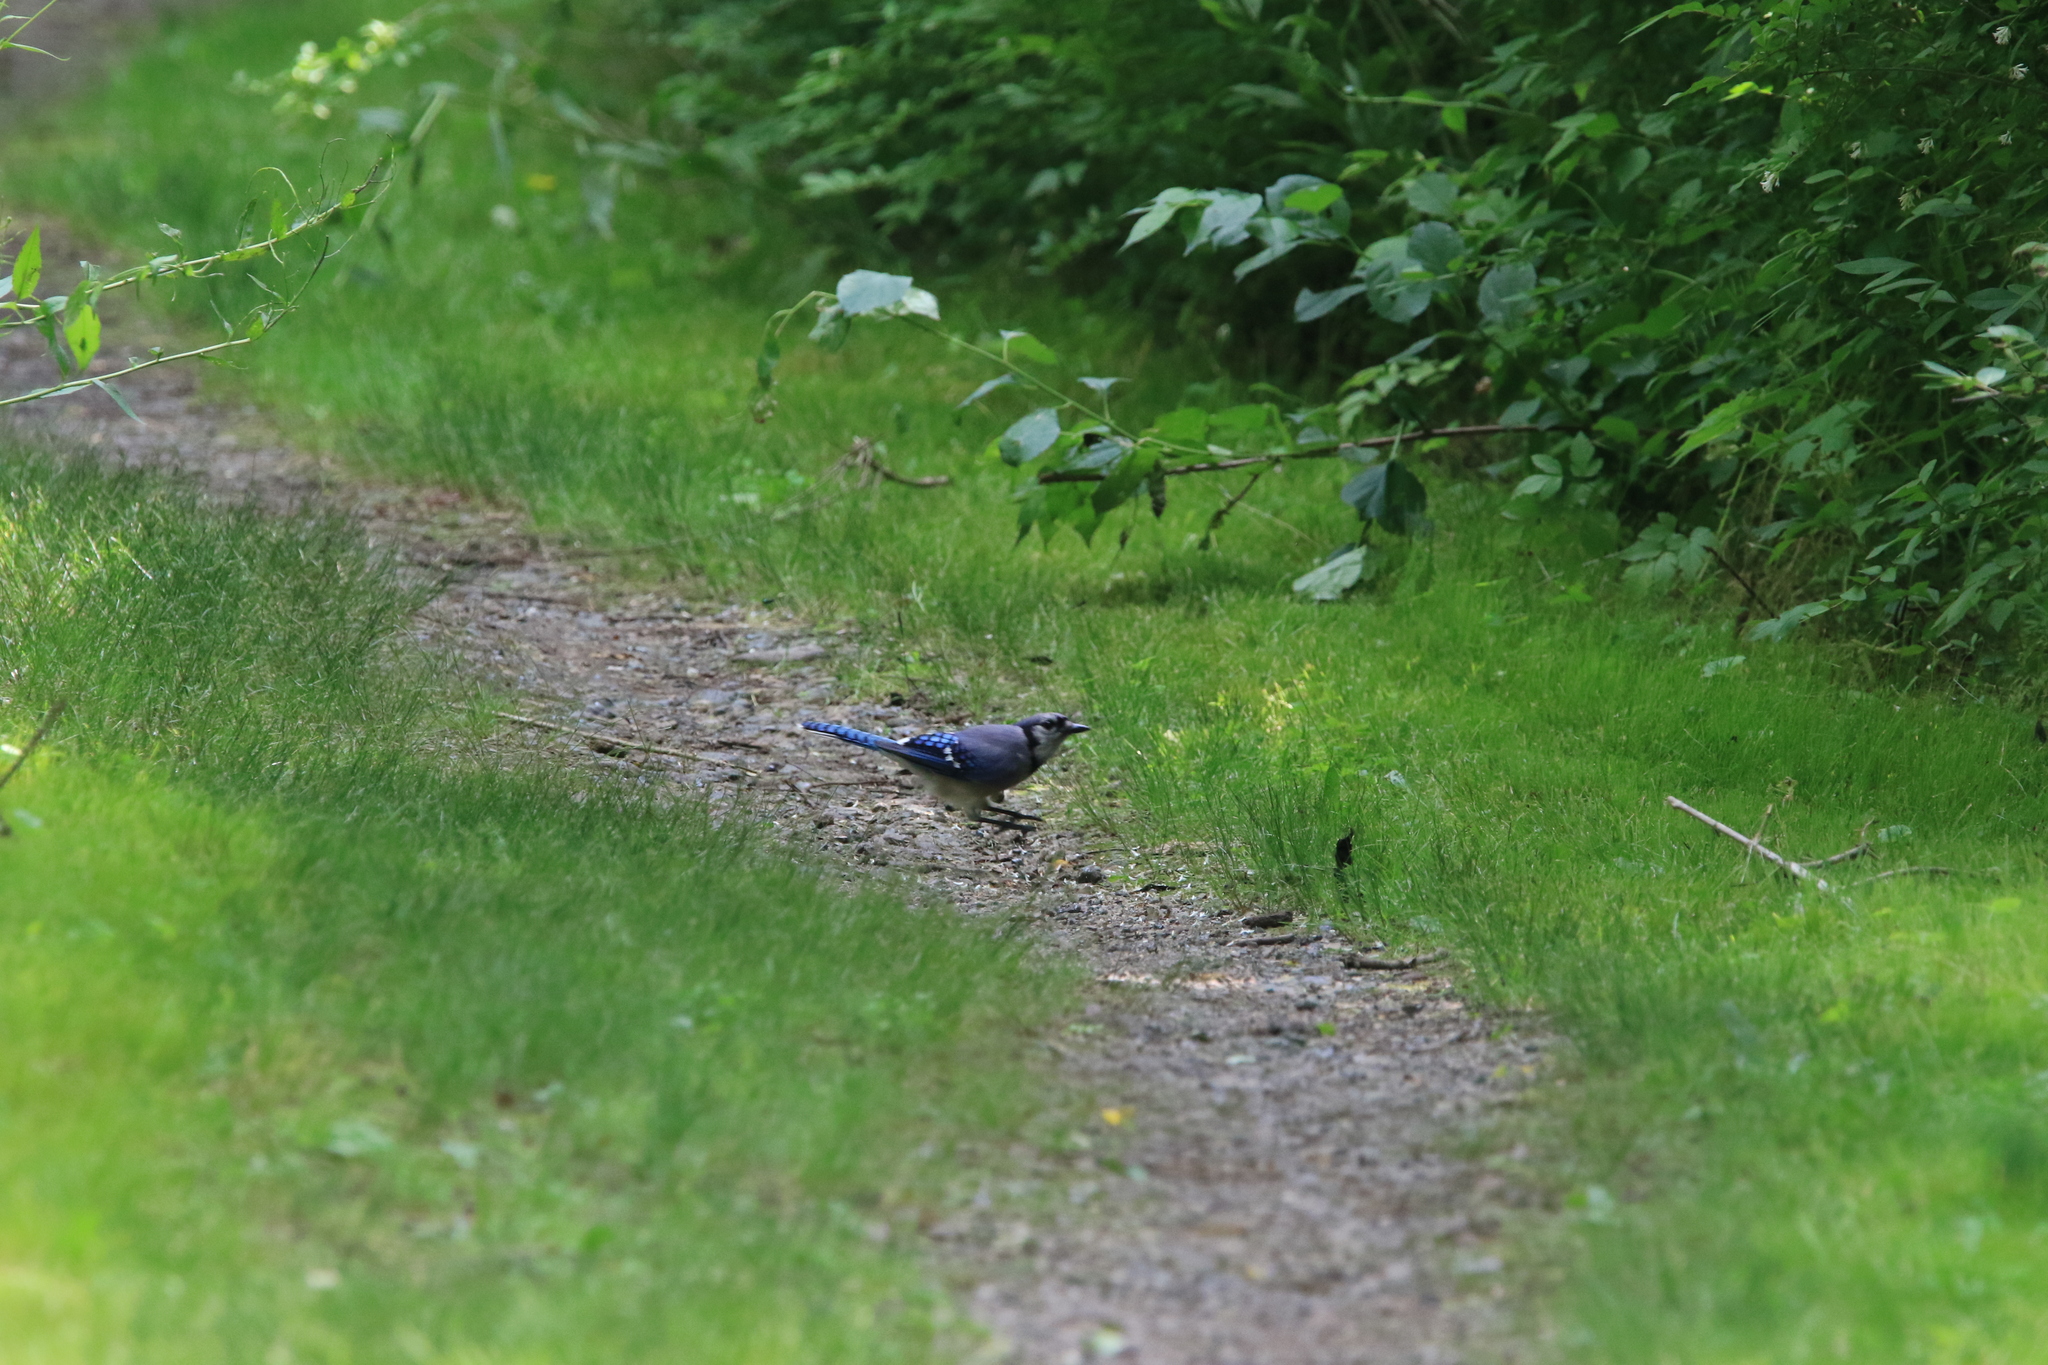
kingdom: Animalia
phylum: Chordata
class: Aves
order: Passeriformes
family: Corvidae
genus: Cyanocitta
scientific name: Cyanocitta cristata
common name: Blue jay
